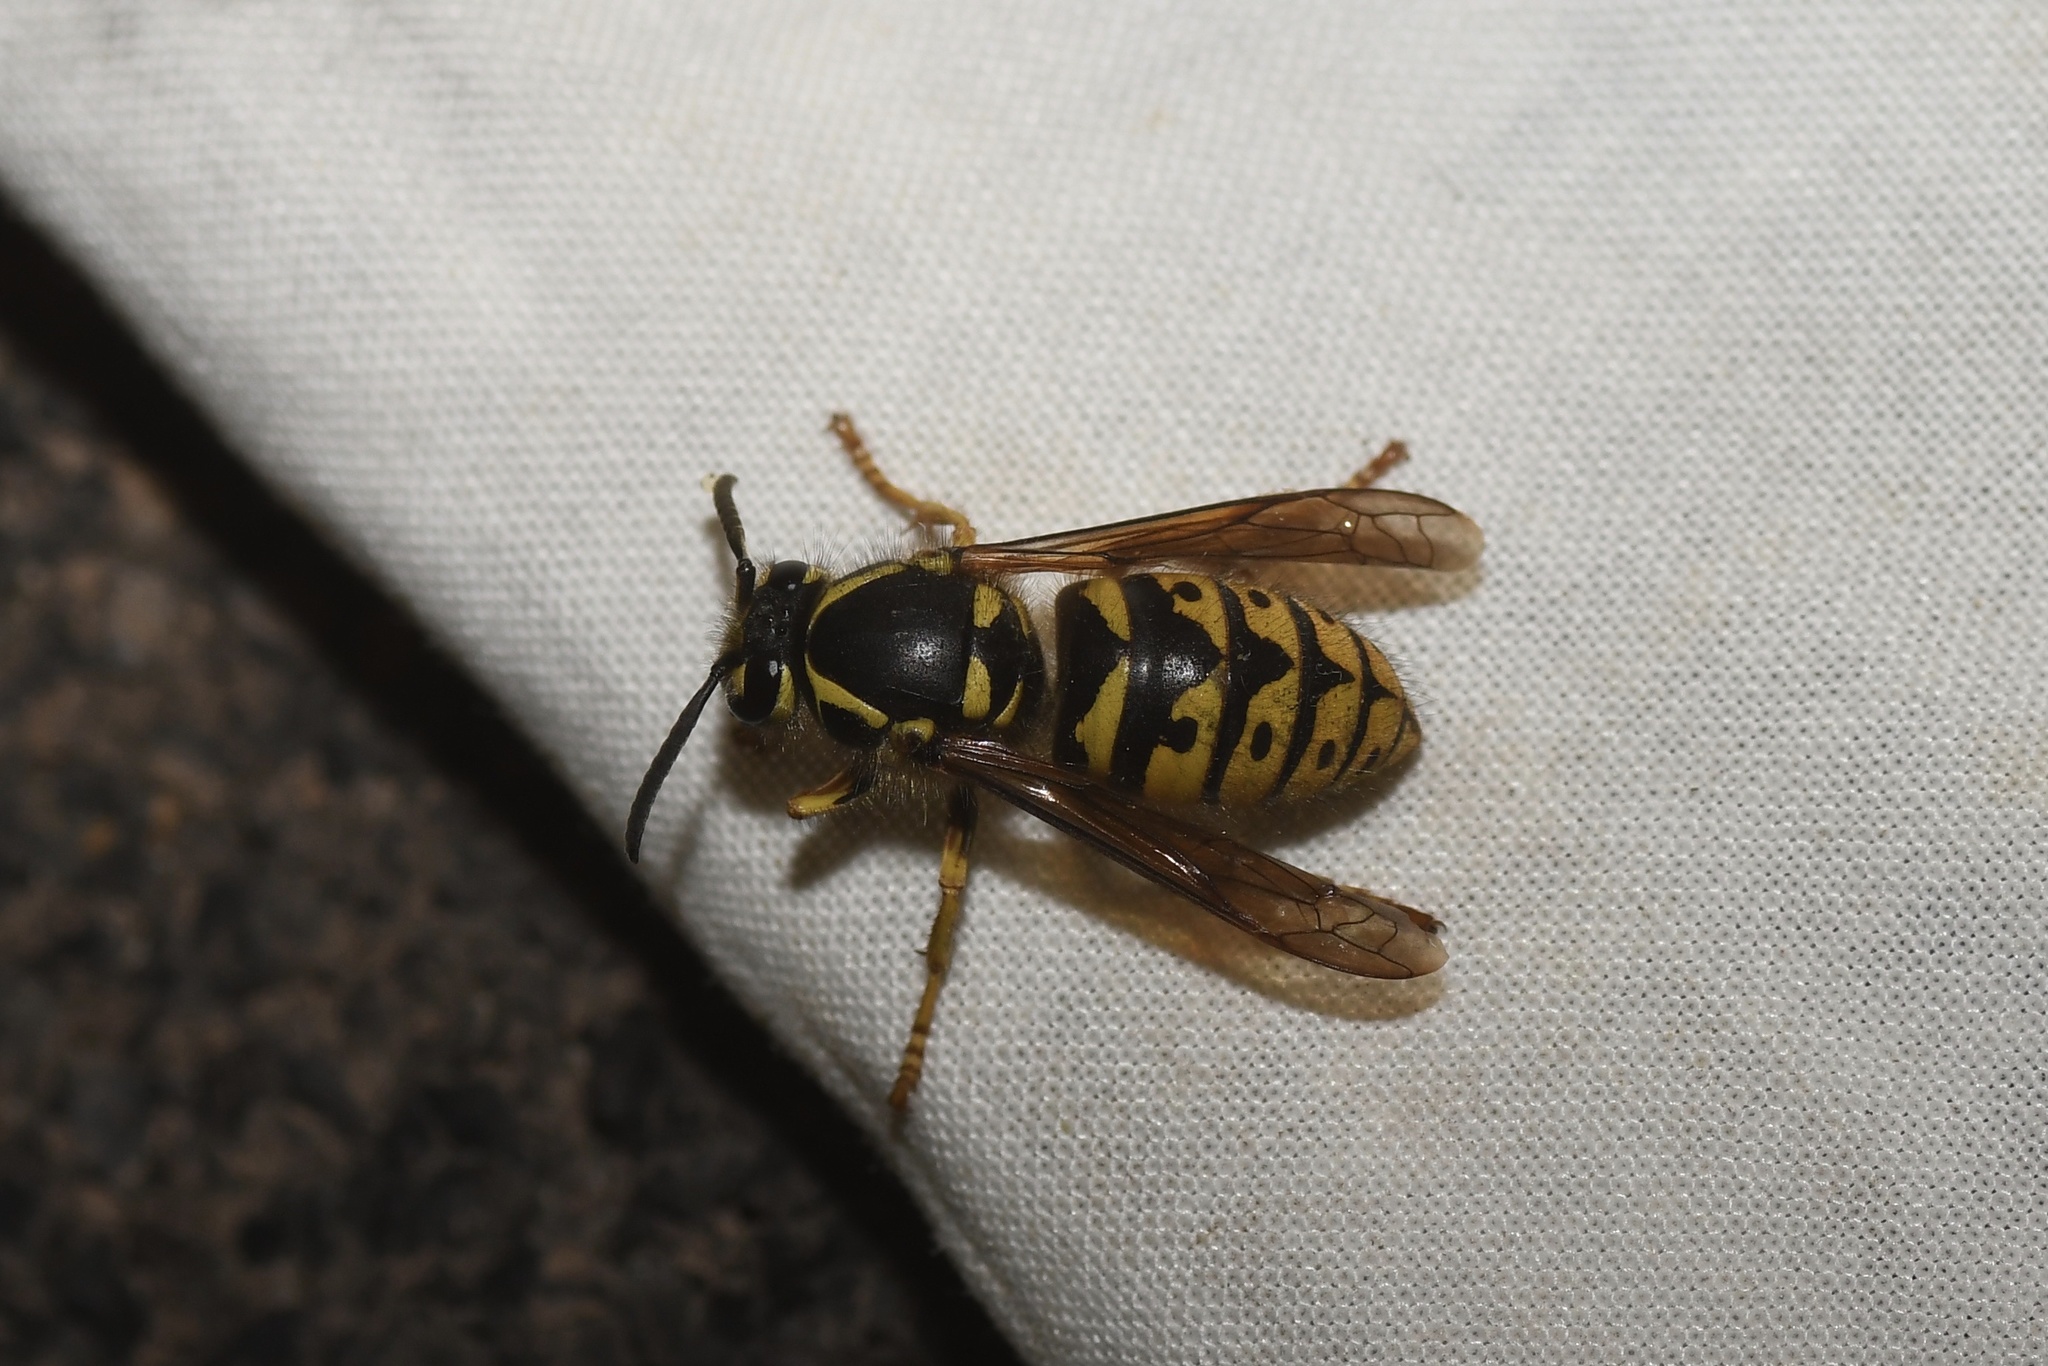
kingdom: Animalia
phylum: Arthropoda
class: Insecta
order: Hymenoptera
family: Vespidae
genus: Dolichovespula
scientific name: Dolichovespula arenaria
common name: Aerial yellowjacket
